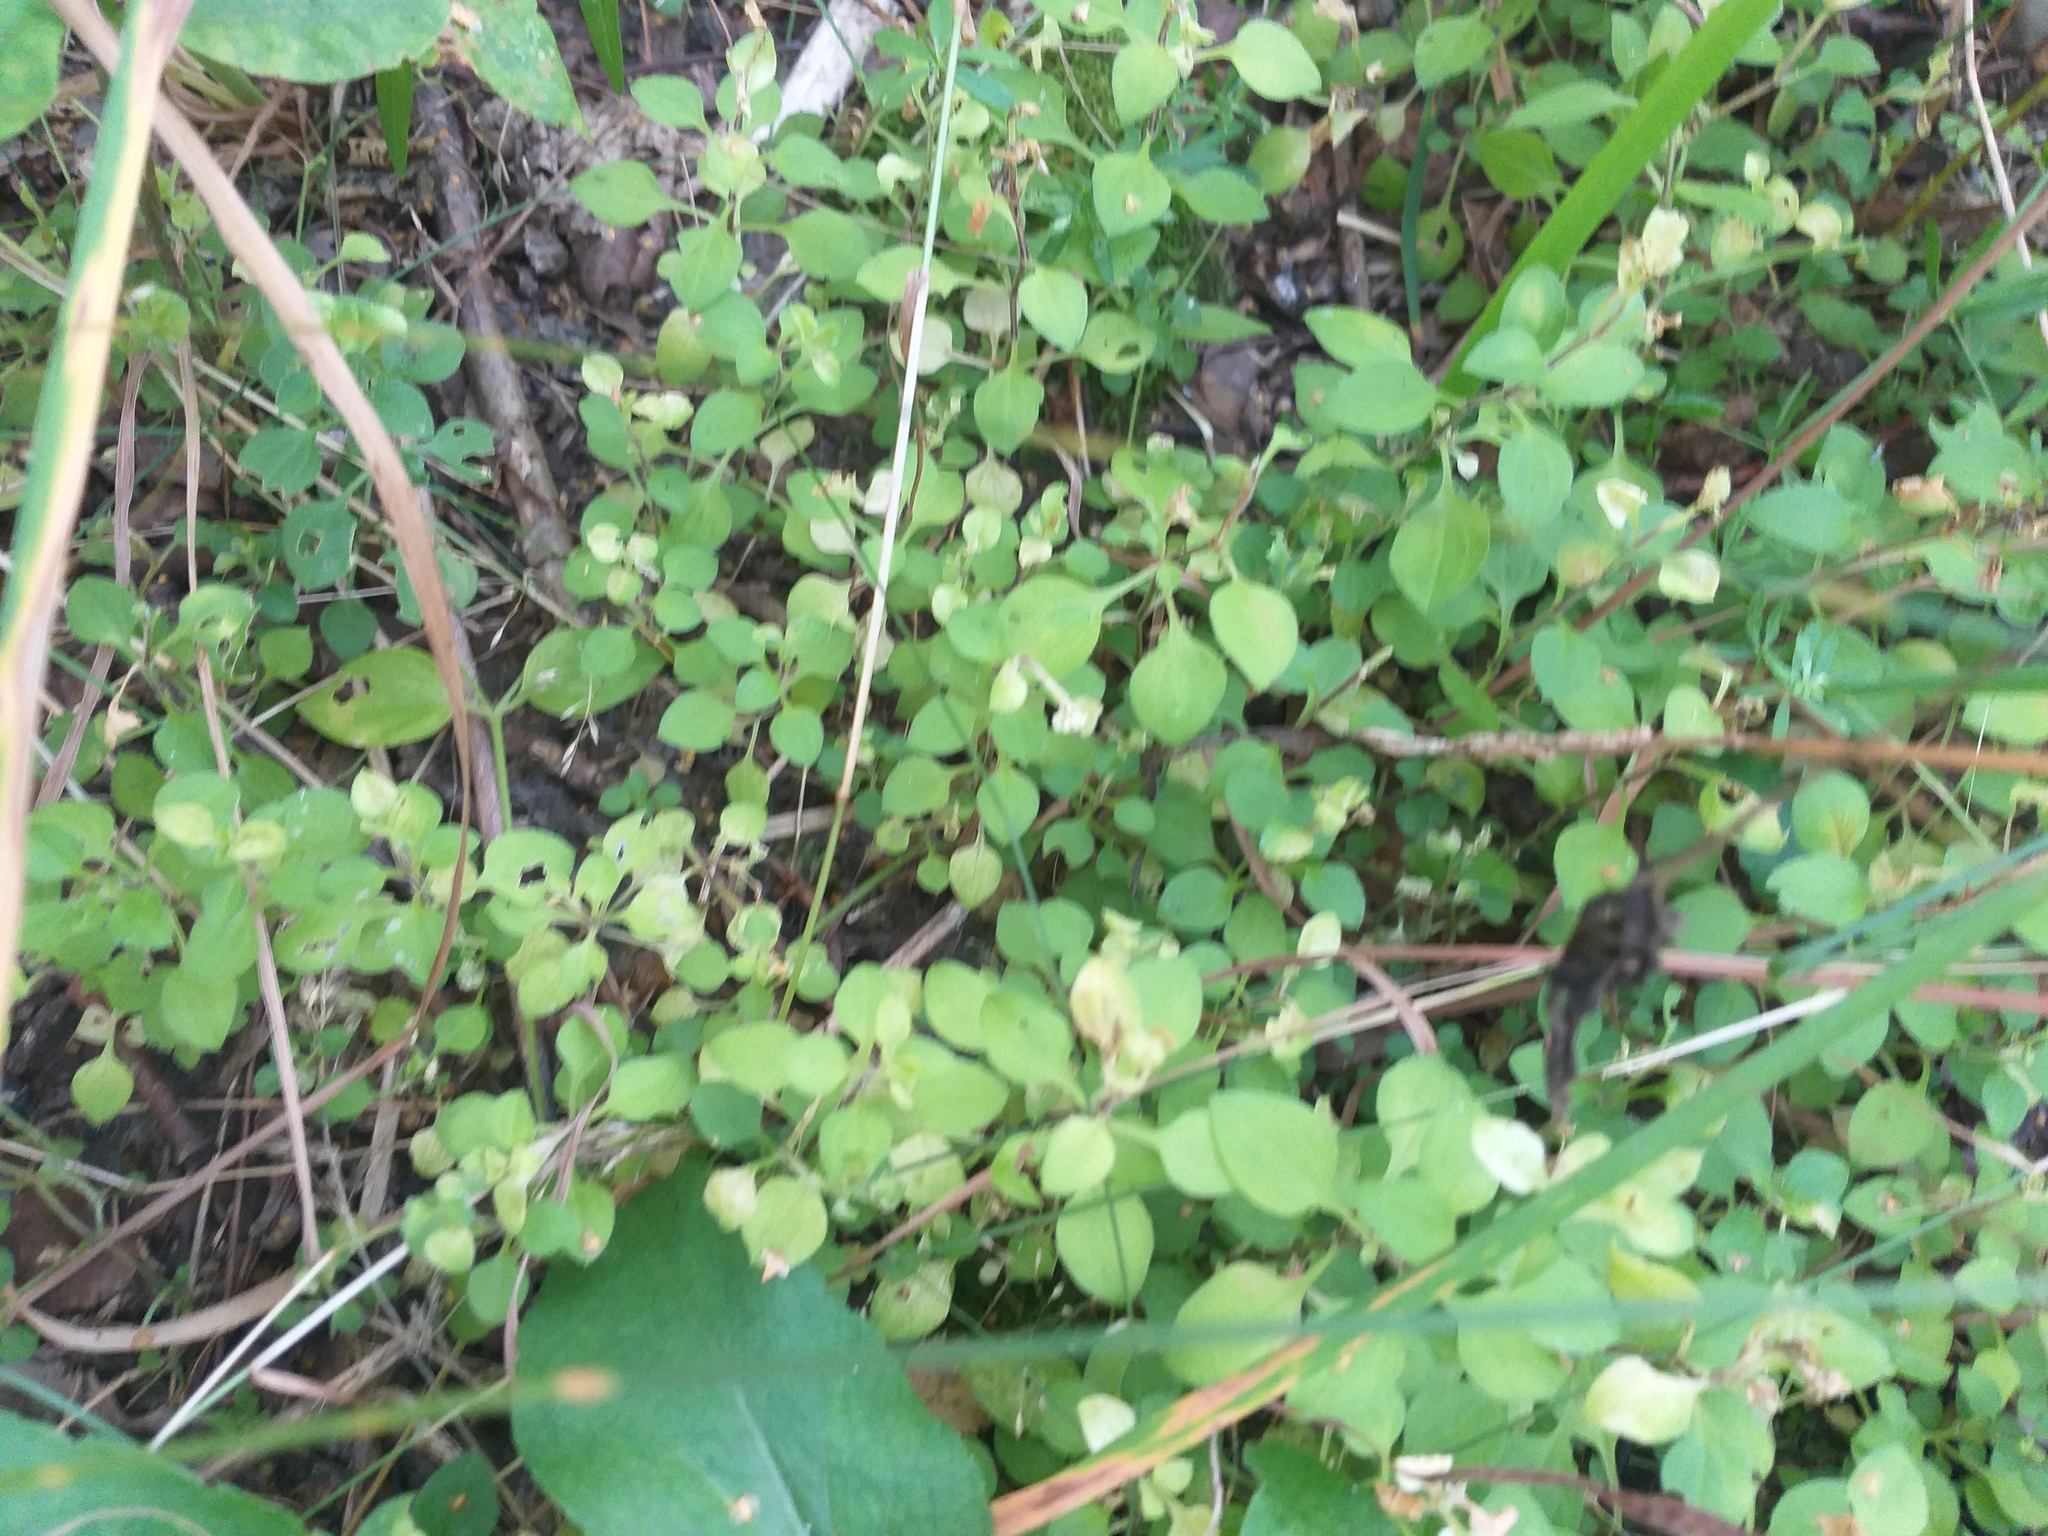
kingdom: Plantae
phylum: Tracheophyta
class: Magnoliopsida
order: Caryophyllales
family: Caryophyllaceae
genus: Moehringia
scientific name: Moehringia trinervia
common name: Three-nerved sandwort
